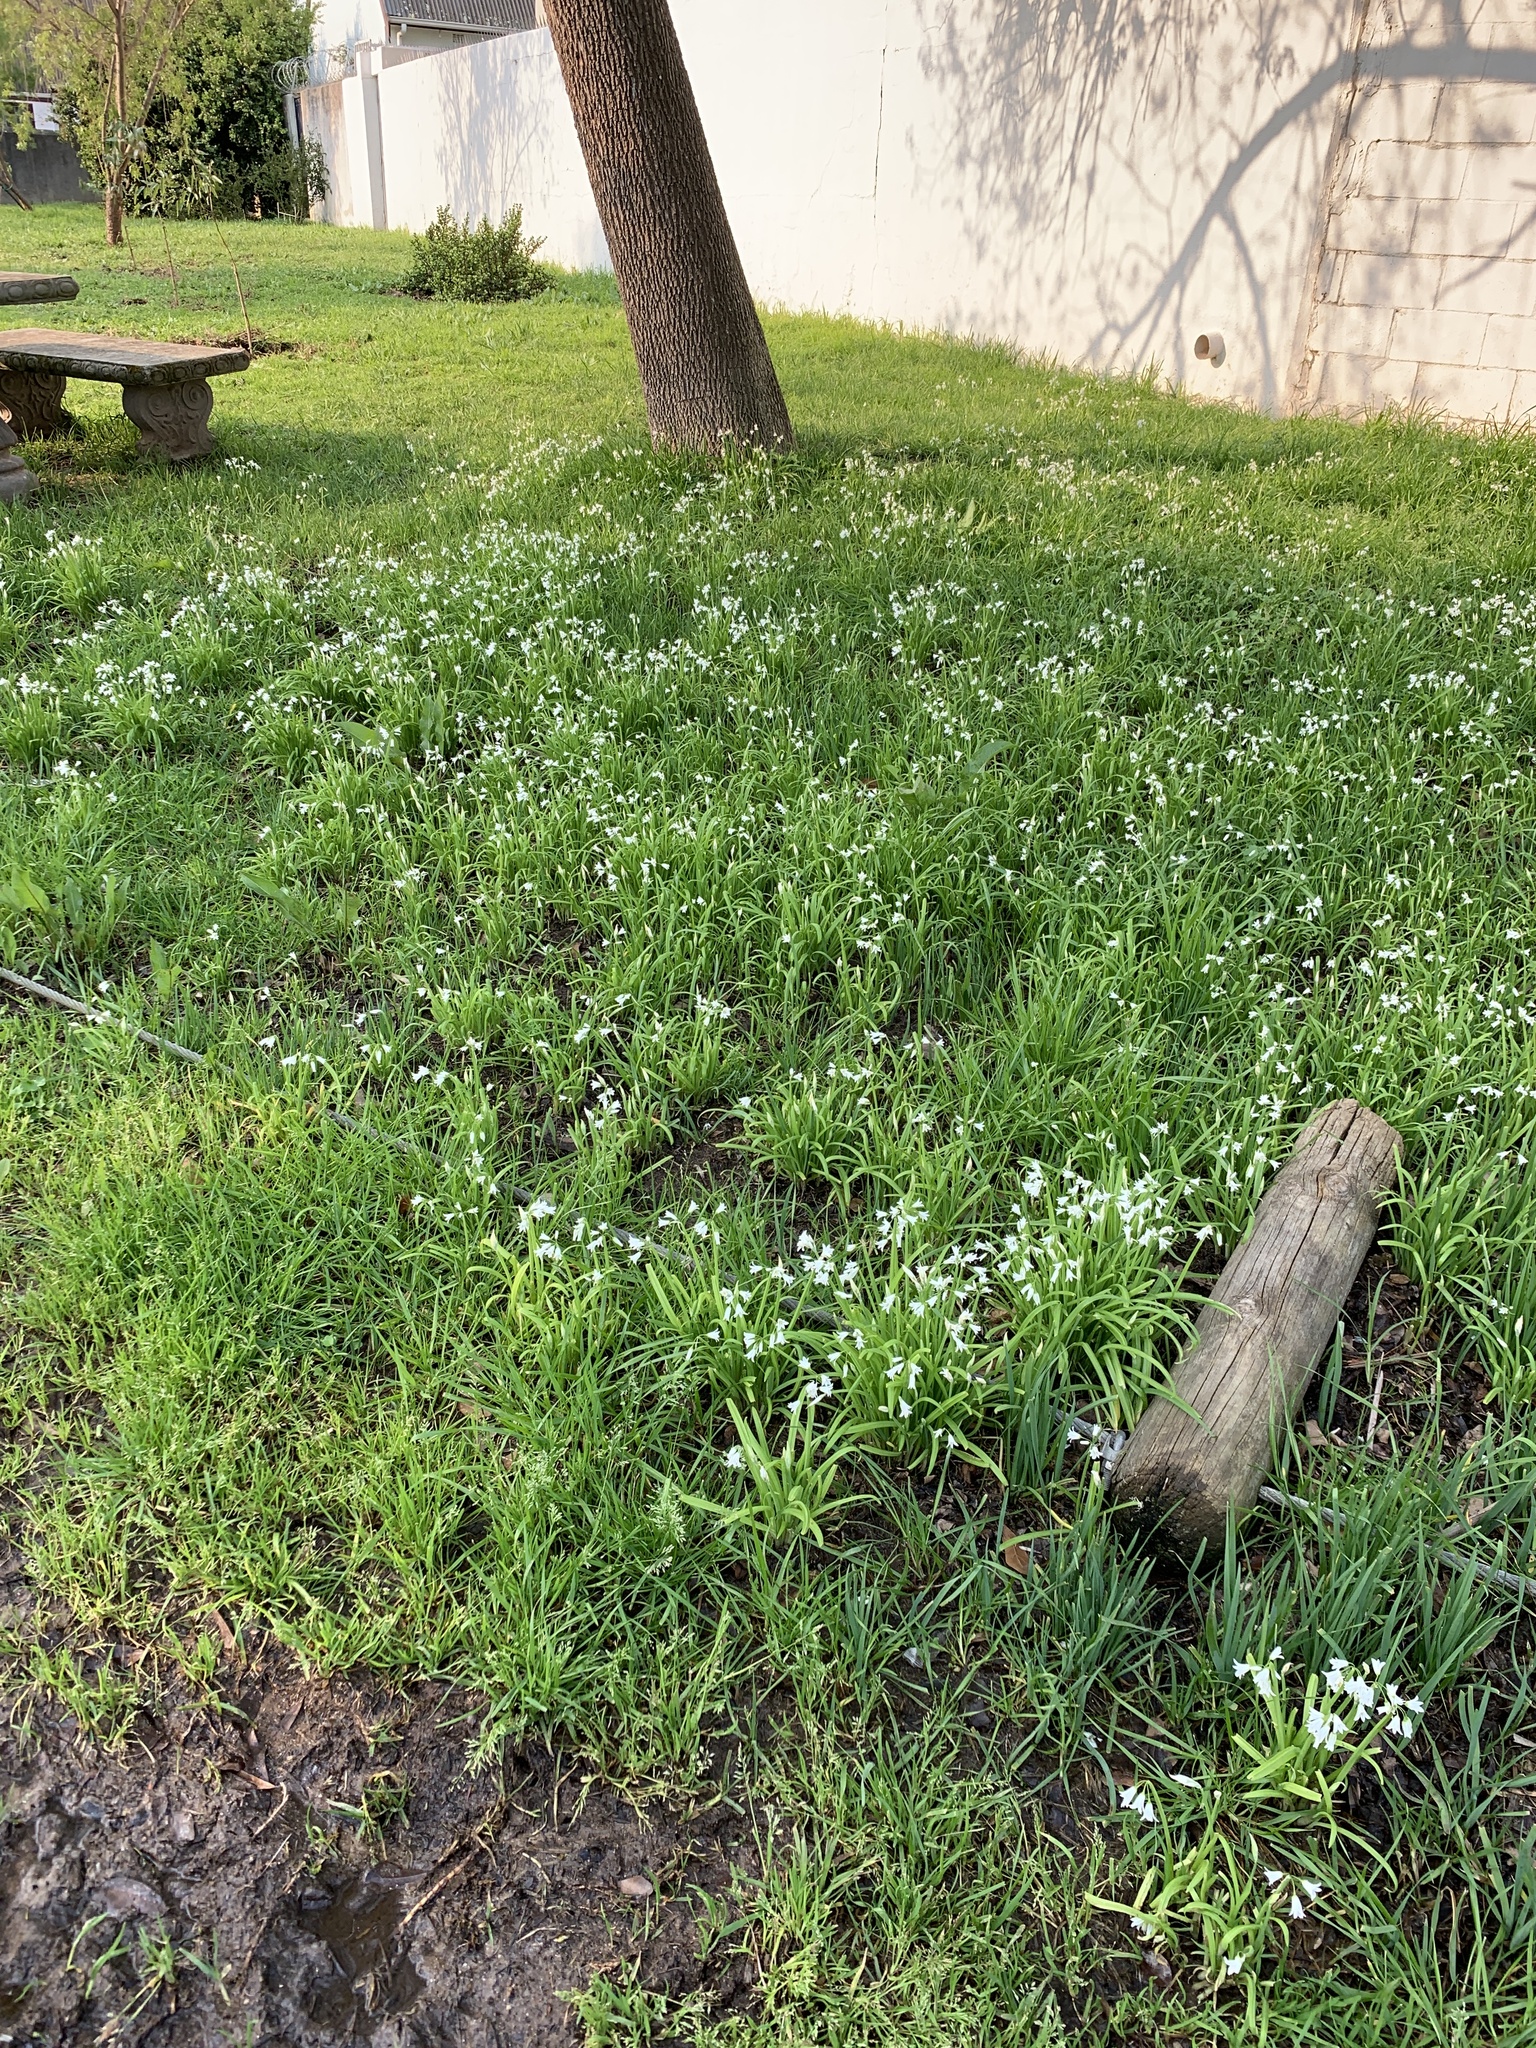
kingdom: Plantae
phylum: Tracheophyta
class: Liliopsida
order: Asparagales
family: Amaryllidaceae
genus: Allium
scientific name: Allium triquetrum
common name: Three-cornered garlic
